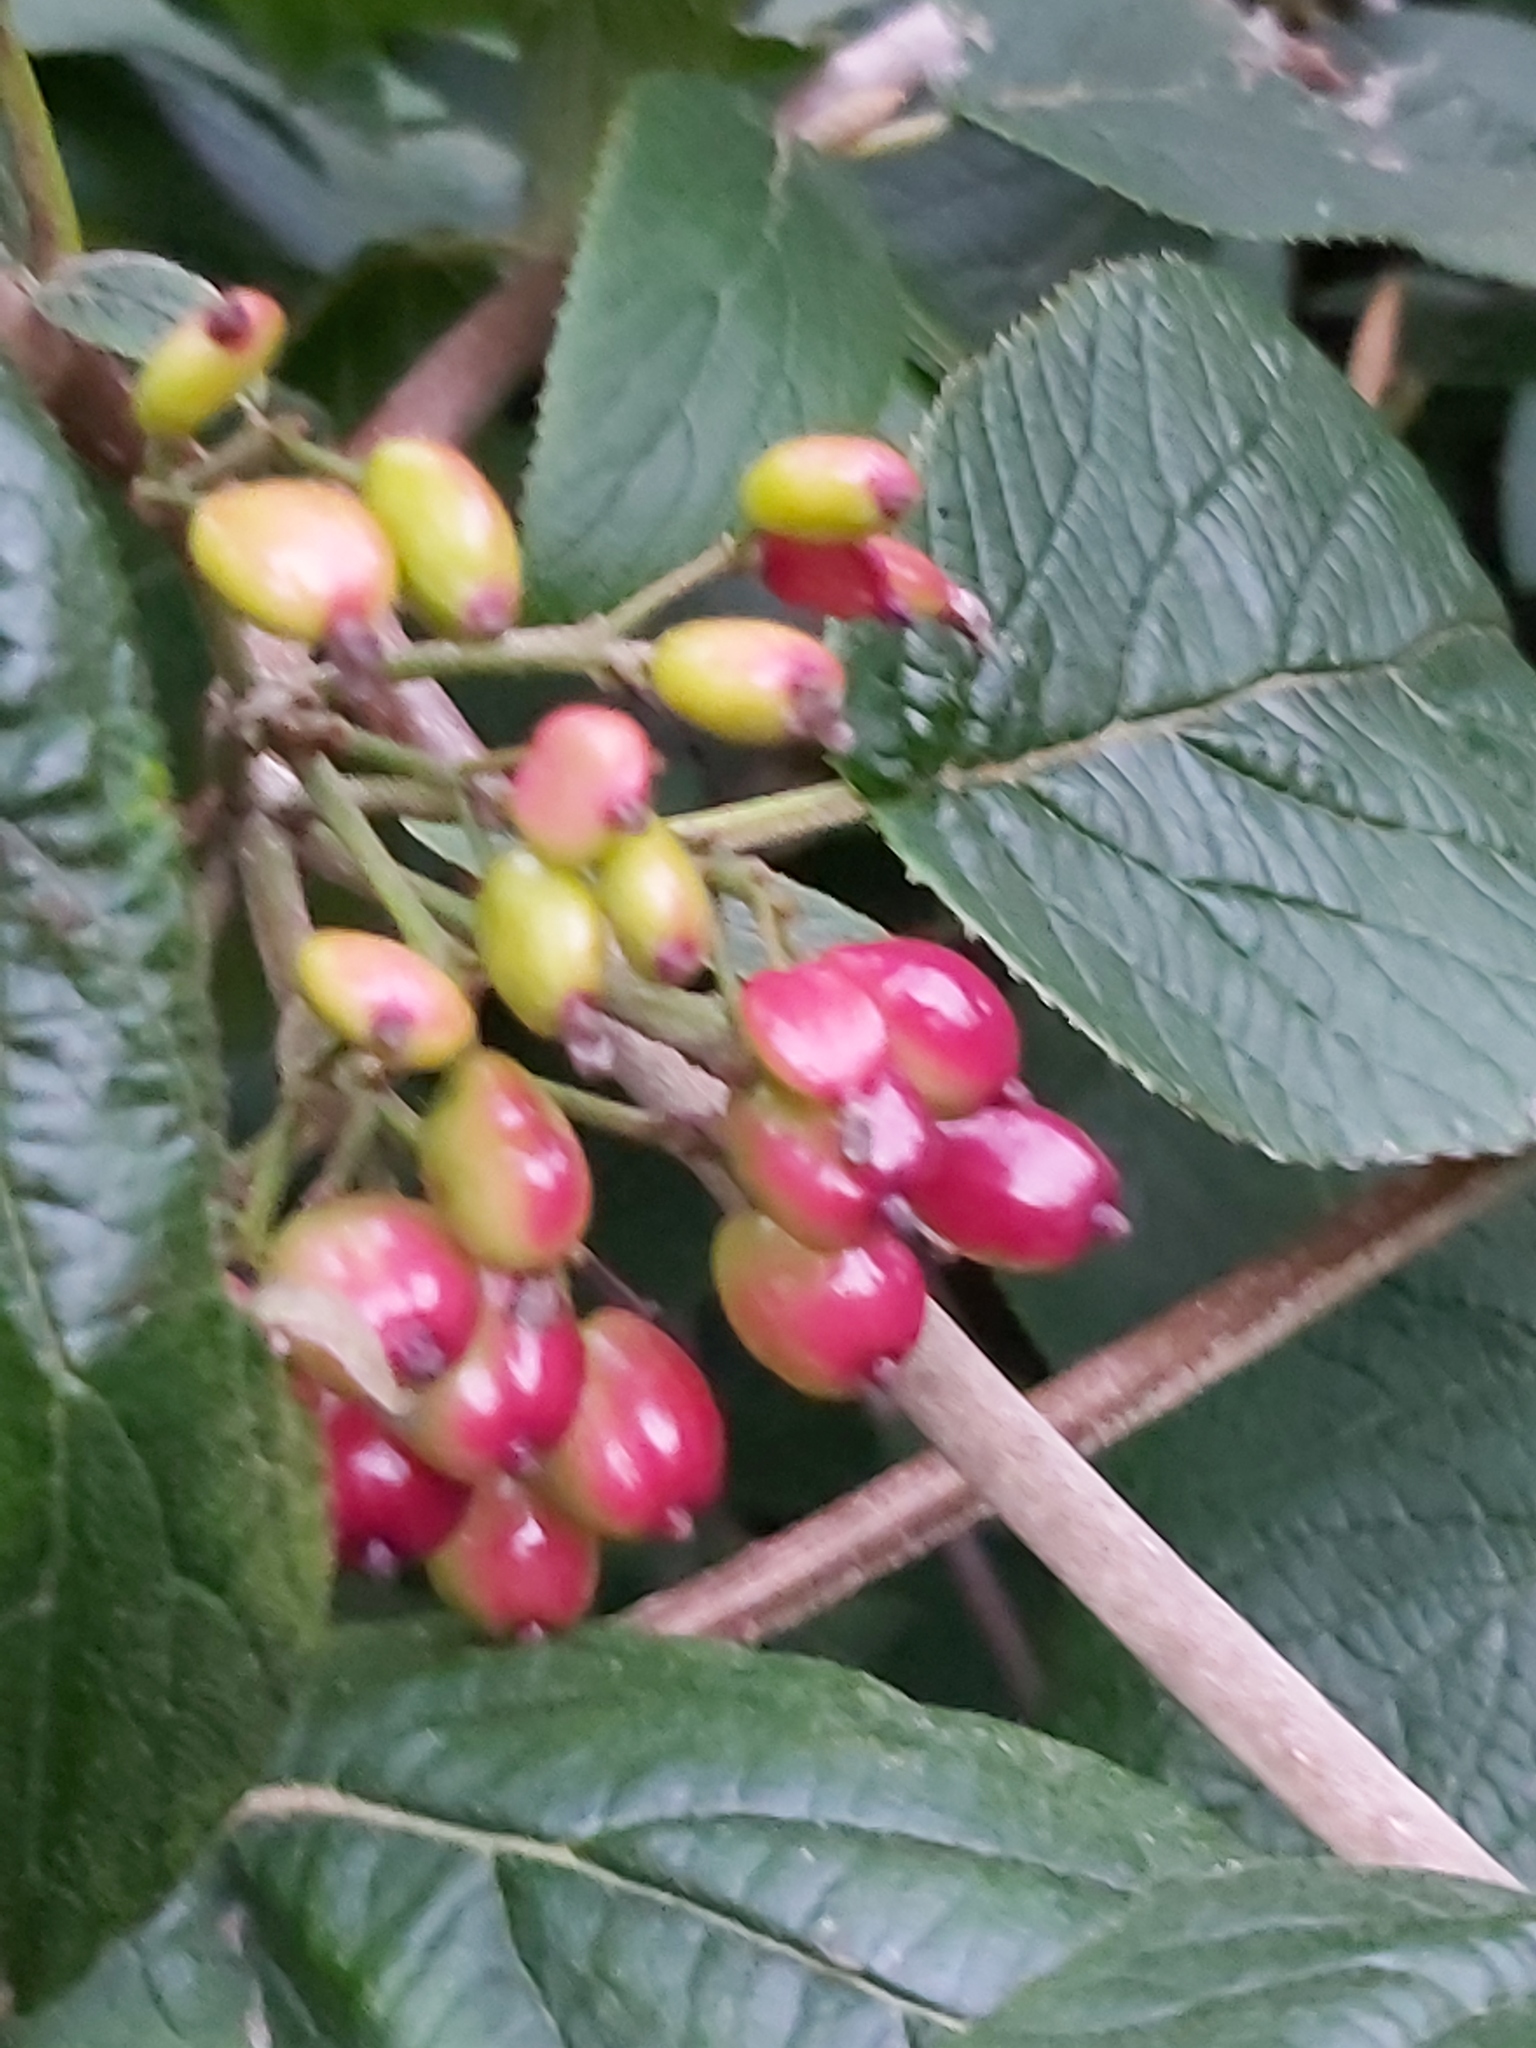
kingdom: Plantae
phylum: Tracheophyta
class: Magnoliopsida
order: Dipsacales
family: Viburnaceae
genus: Viburnum
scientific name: Viburnum lantana
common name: Wayfaring tree
